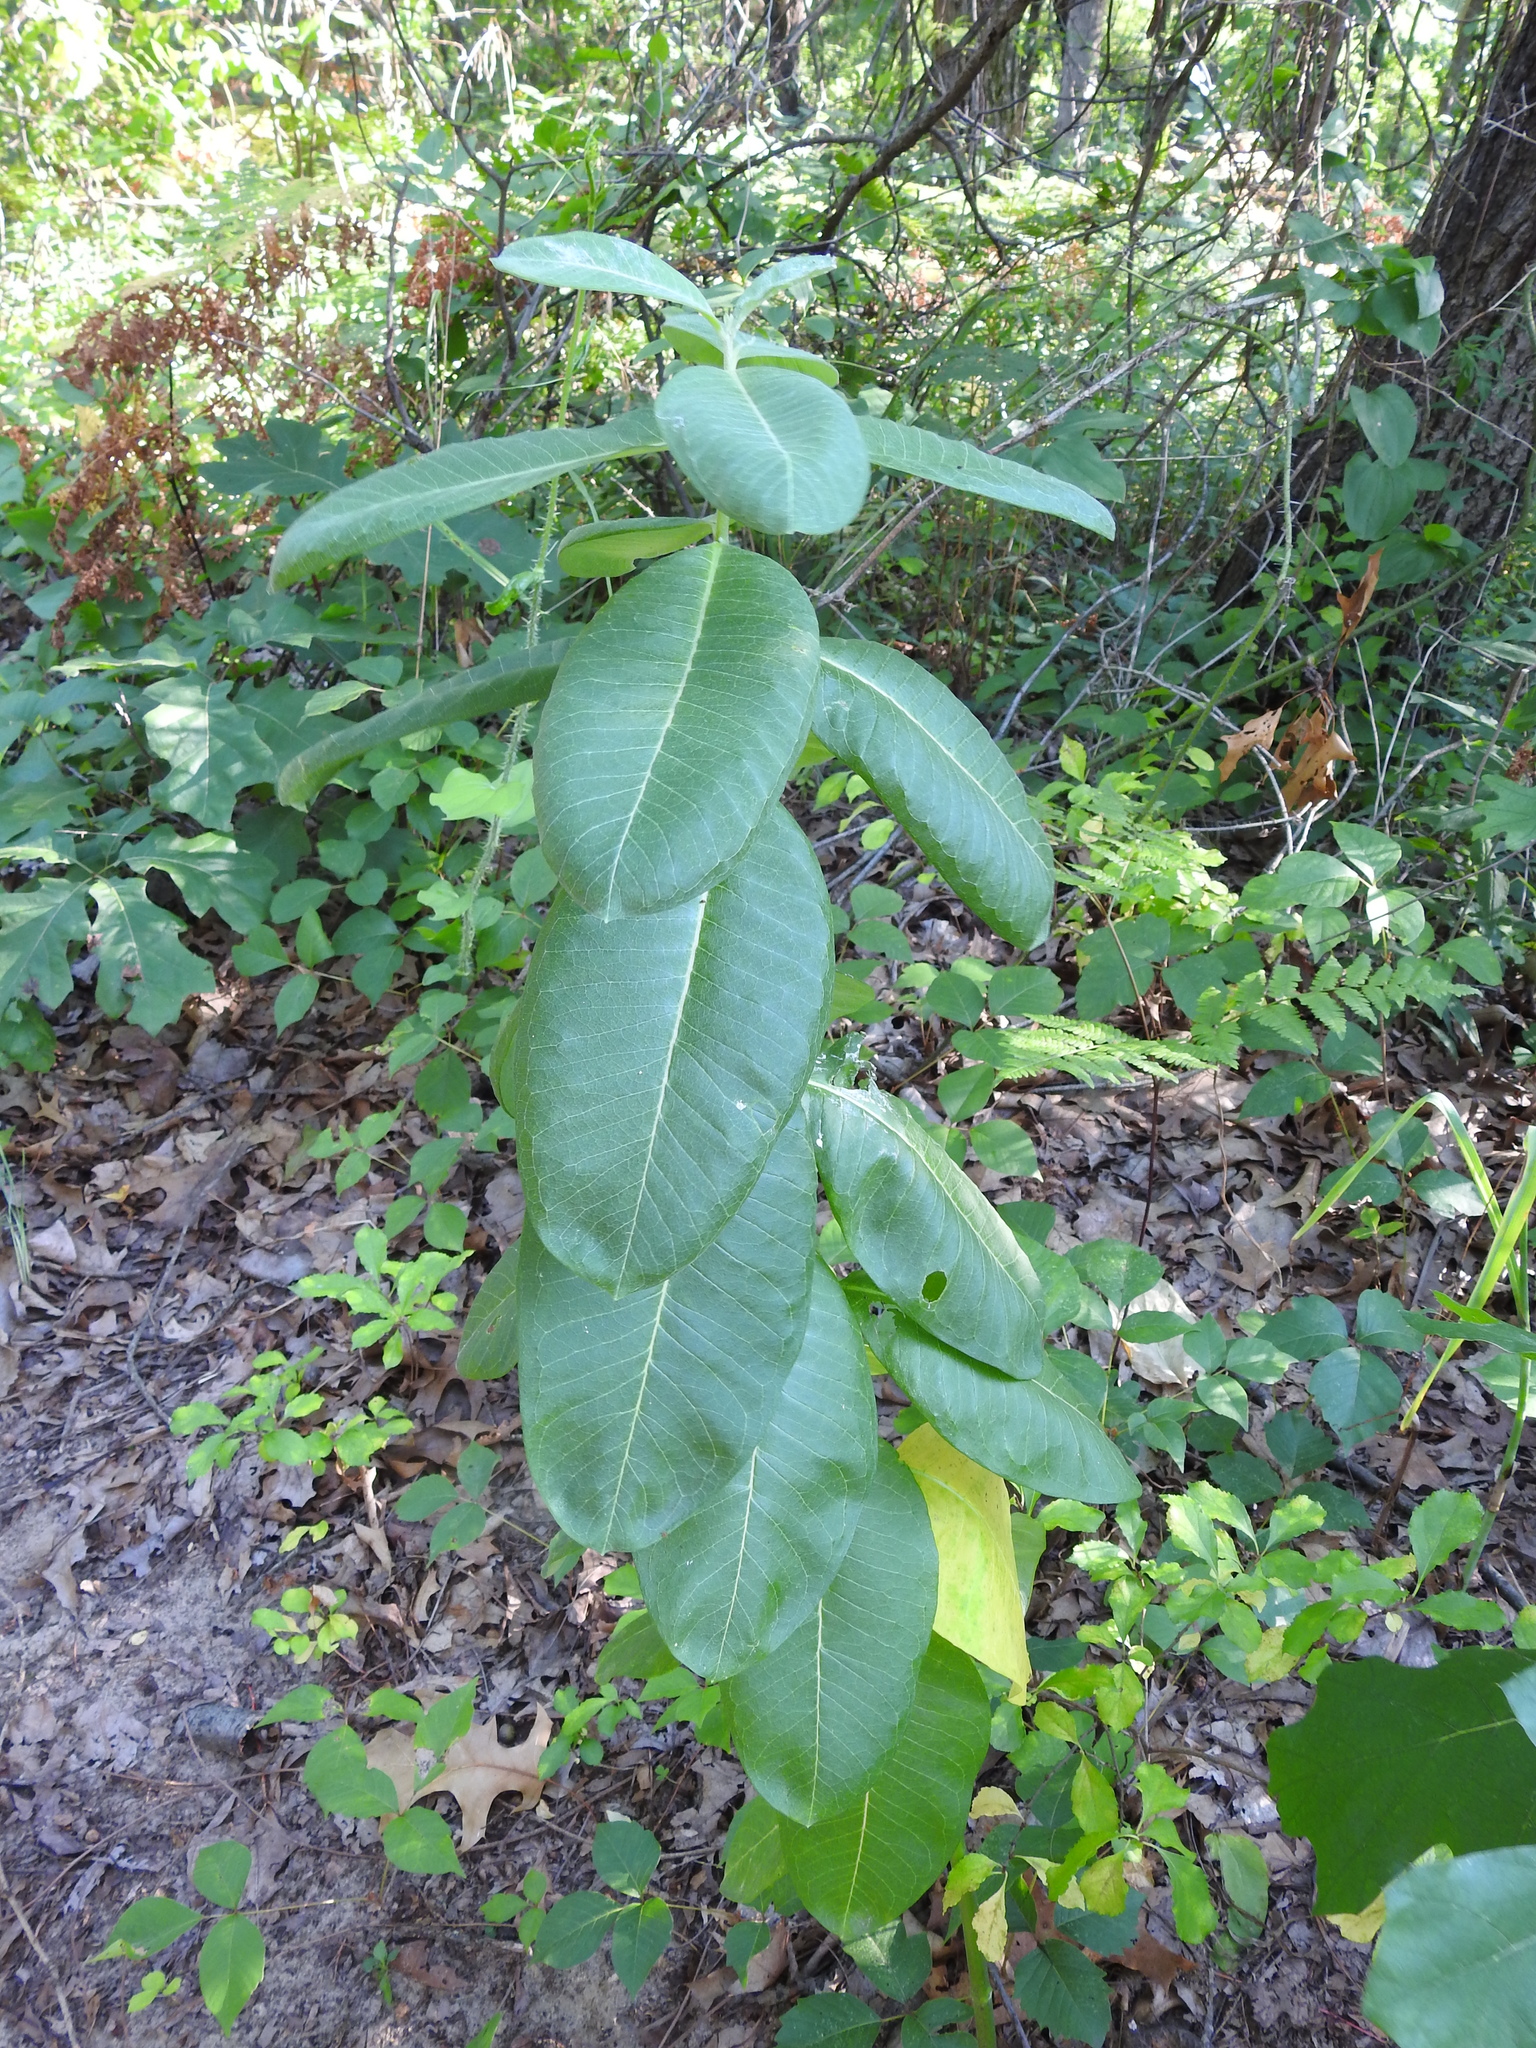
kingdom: Plantae
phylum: Tracheophyta
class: Magnoliopsida
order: Gentianales
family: Apocynaceae
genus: Asclepias
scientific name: Asclepias syriaca
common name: Common milkweed
